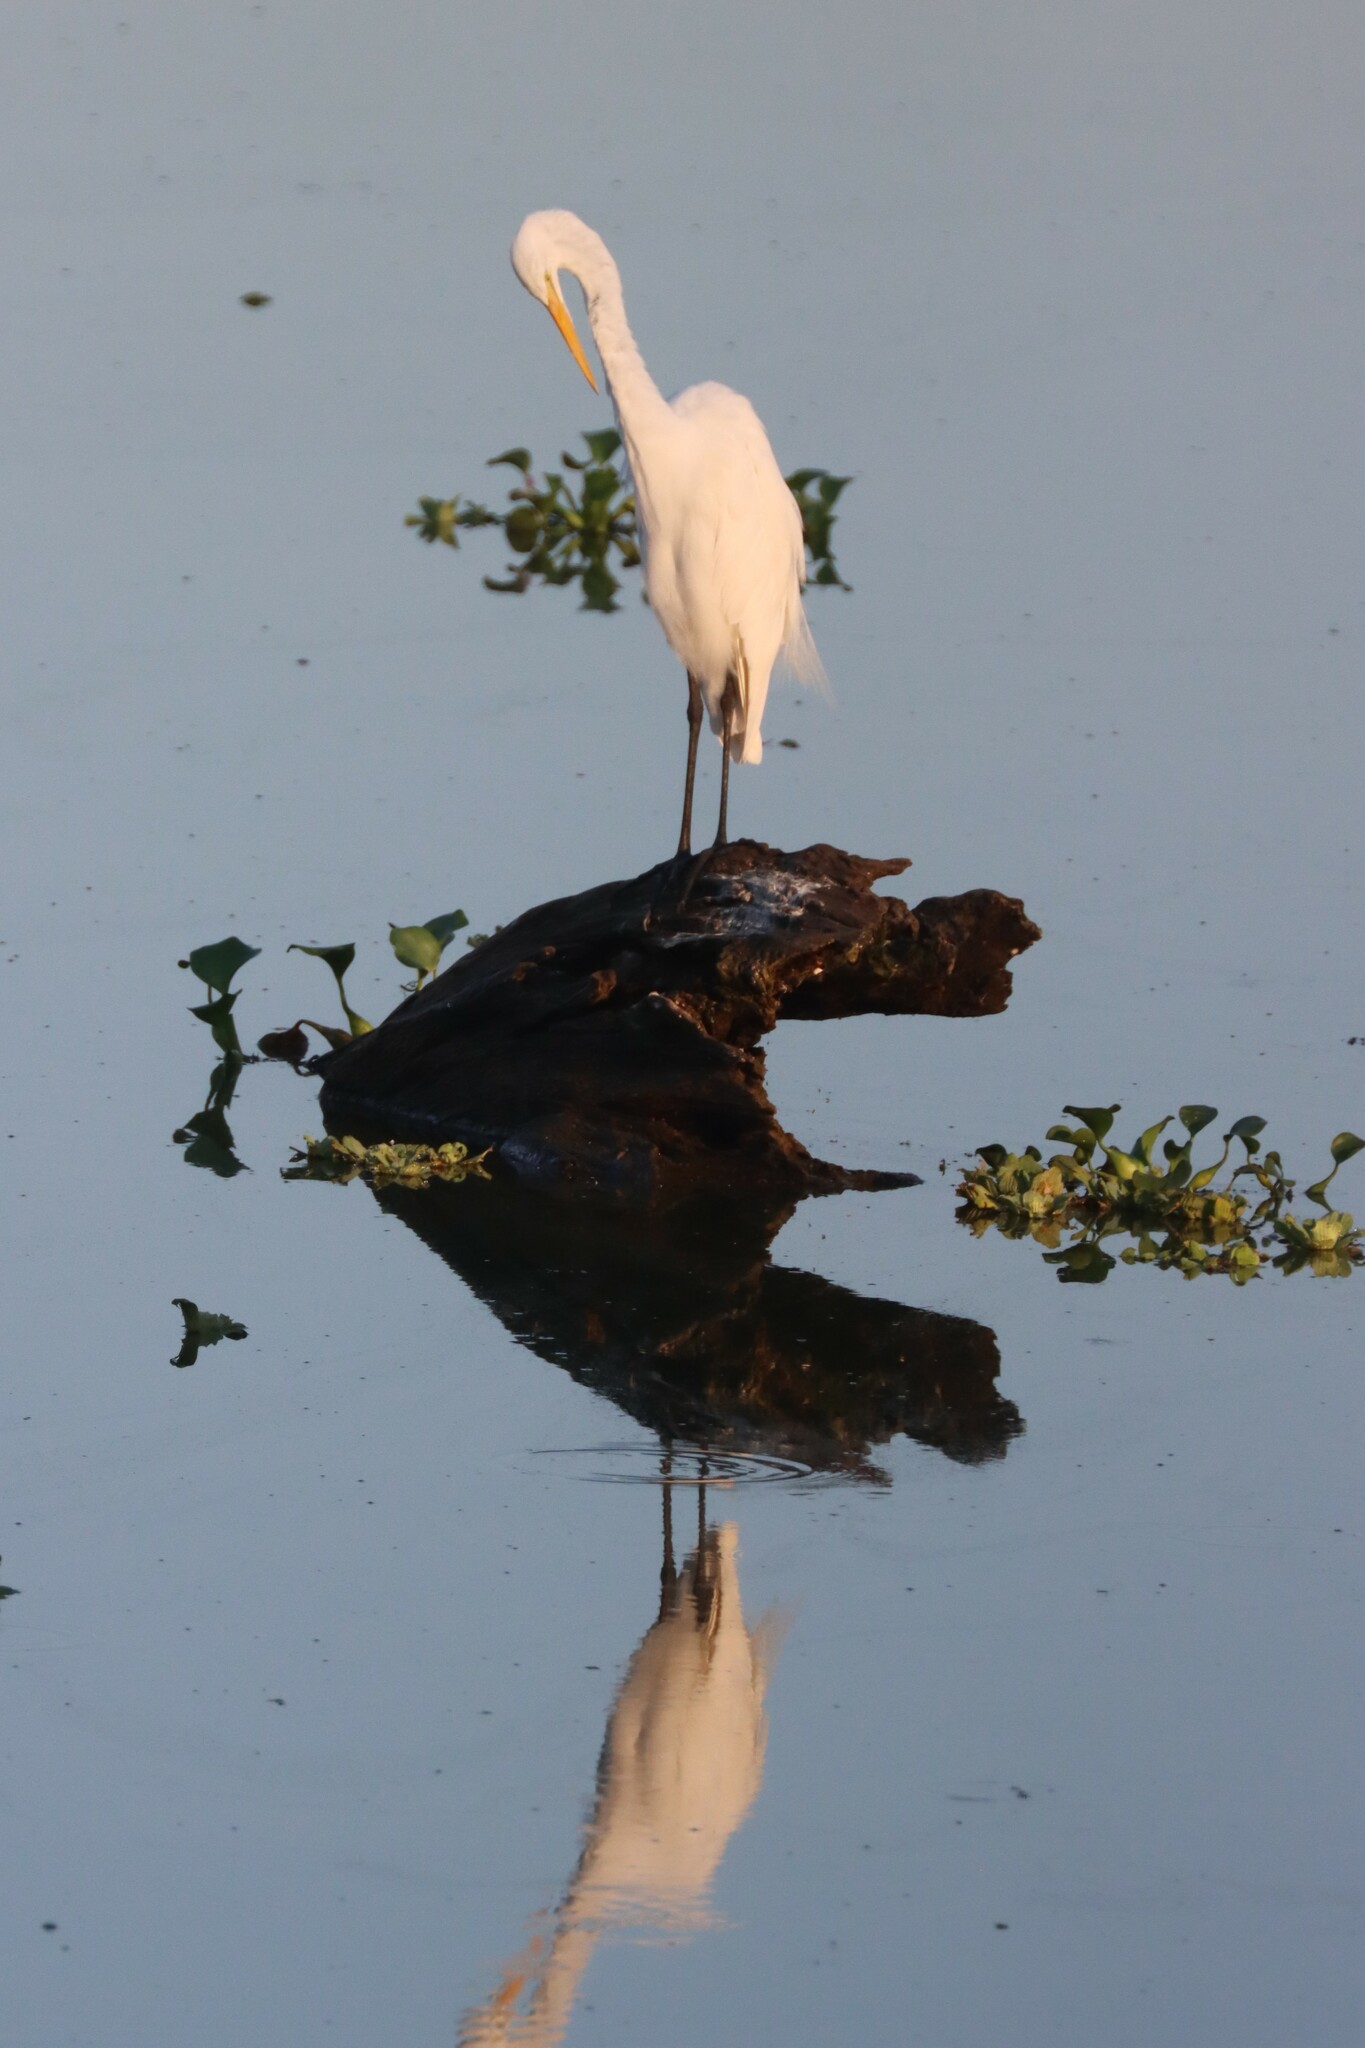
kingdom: Animalia
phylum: Chordata
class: Aves
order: Pelecaniformes
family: Ardeidae
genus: Ardea
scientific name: Ardea alba
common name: Great egret
